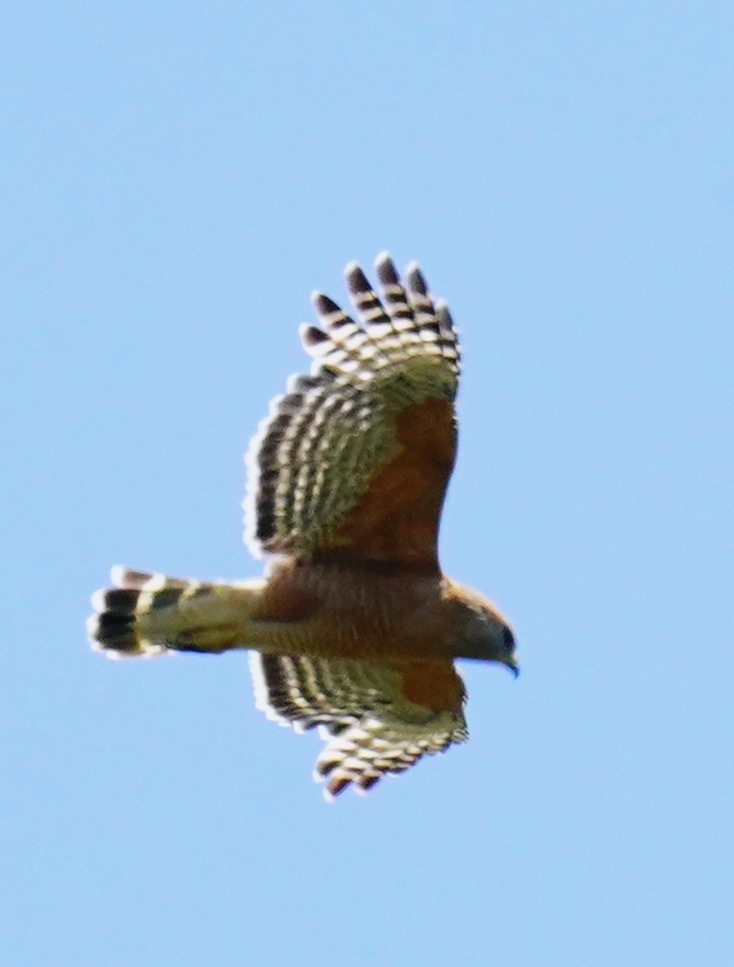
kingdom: Animalia
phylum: Chordata
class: Aves
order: Accipitriformes
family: Accipitridae
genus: Buteo
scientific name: Buteo lineatus
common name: Red-shouldered hawk
